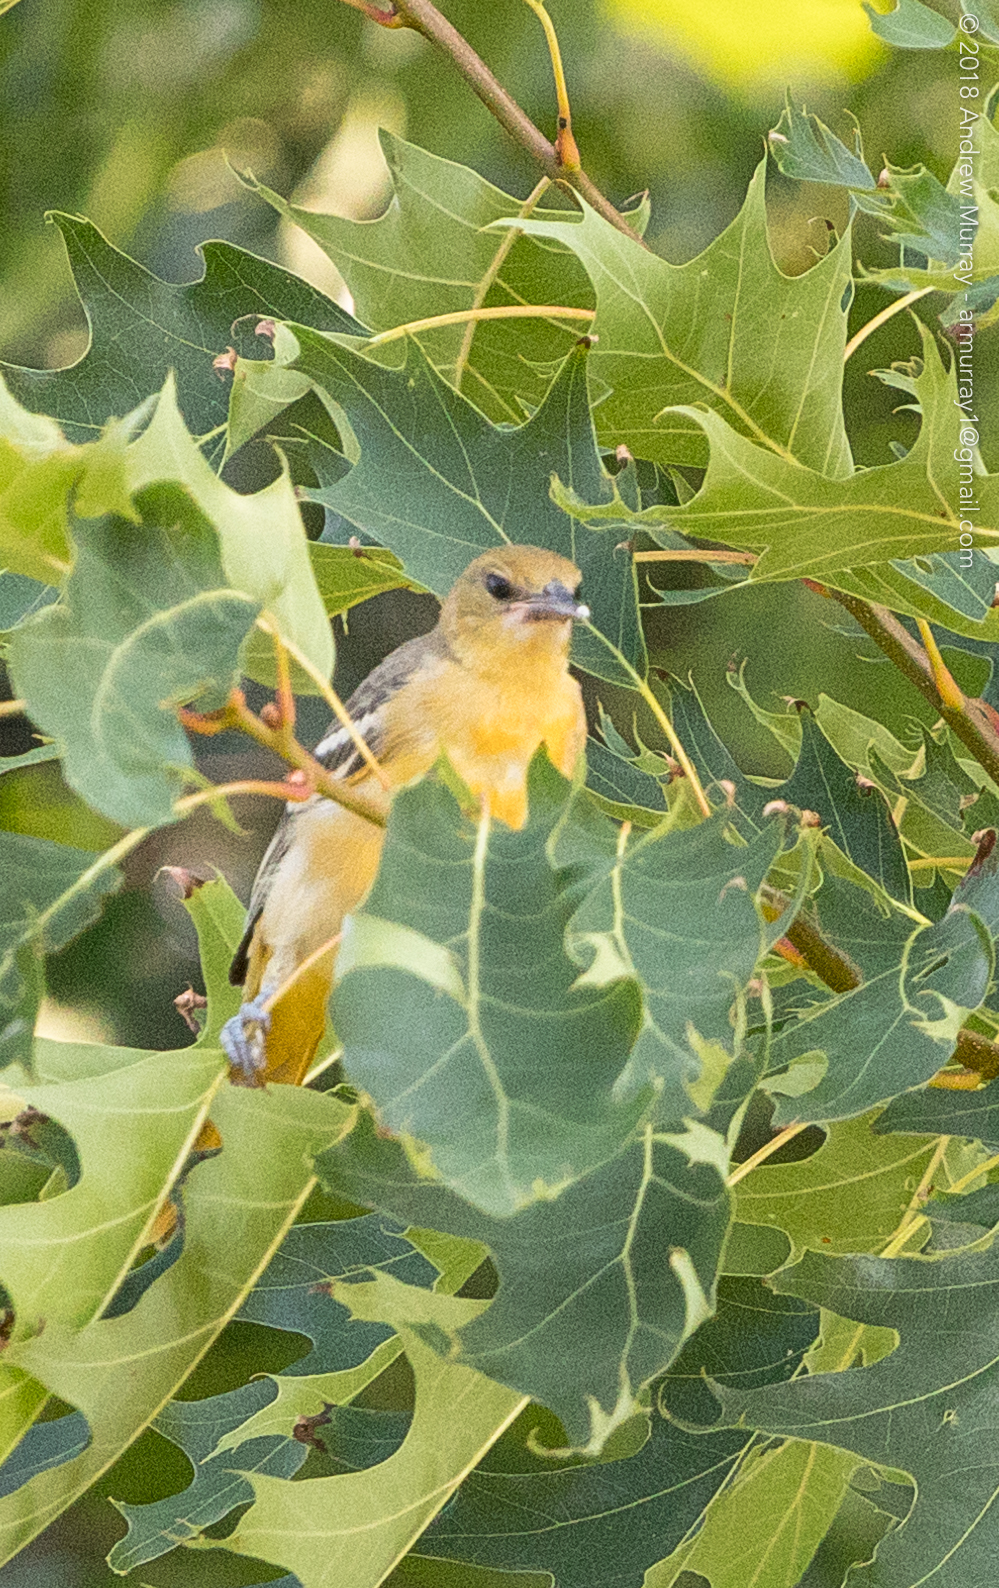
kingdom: Animalia
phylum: Chordata
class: Aves
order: Passeriformes
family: Icteridae
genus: Icterus
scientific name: Icterus galbula
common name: Baltimore oriole
